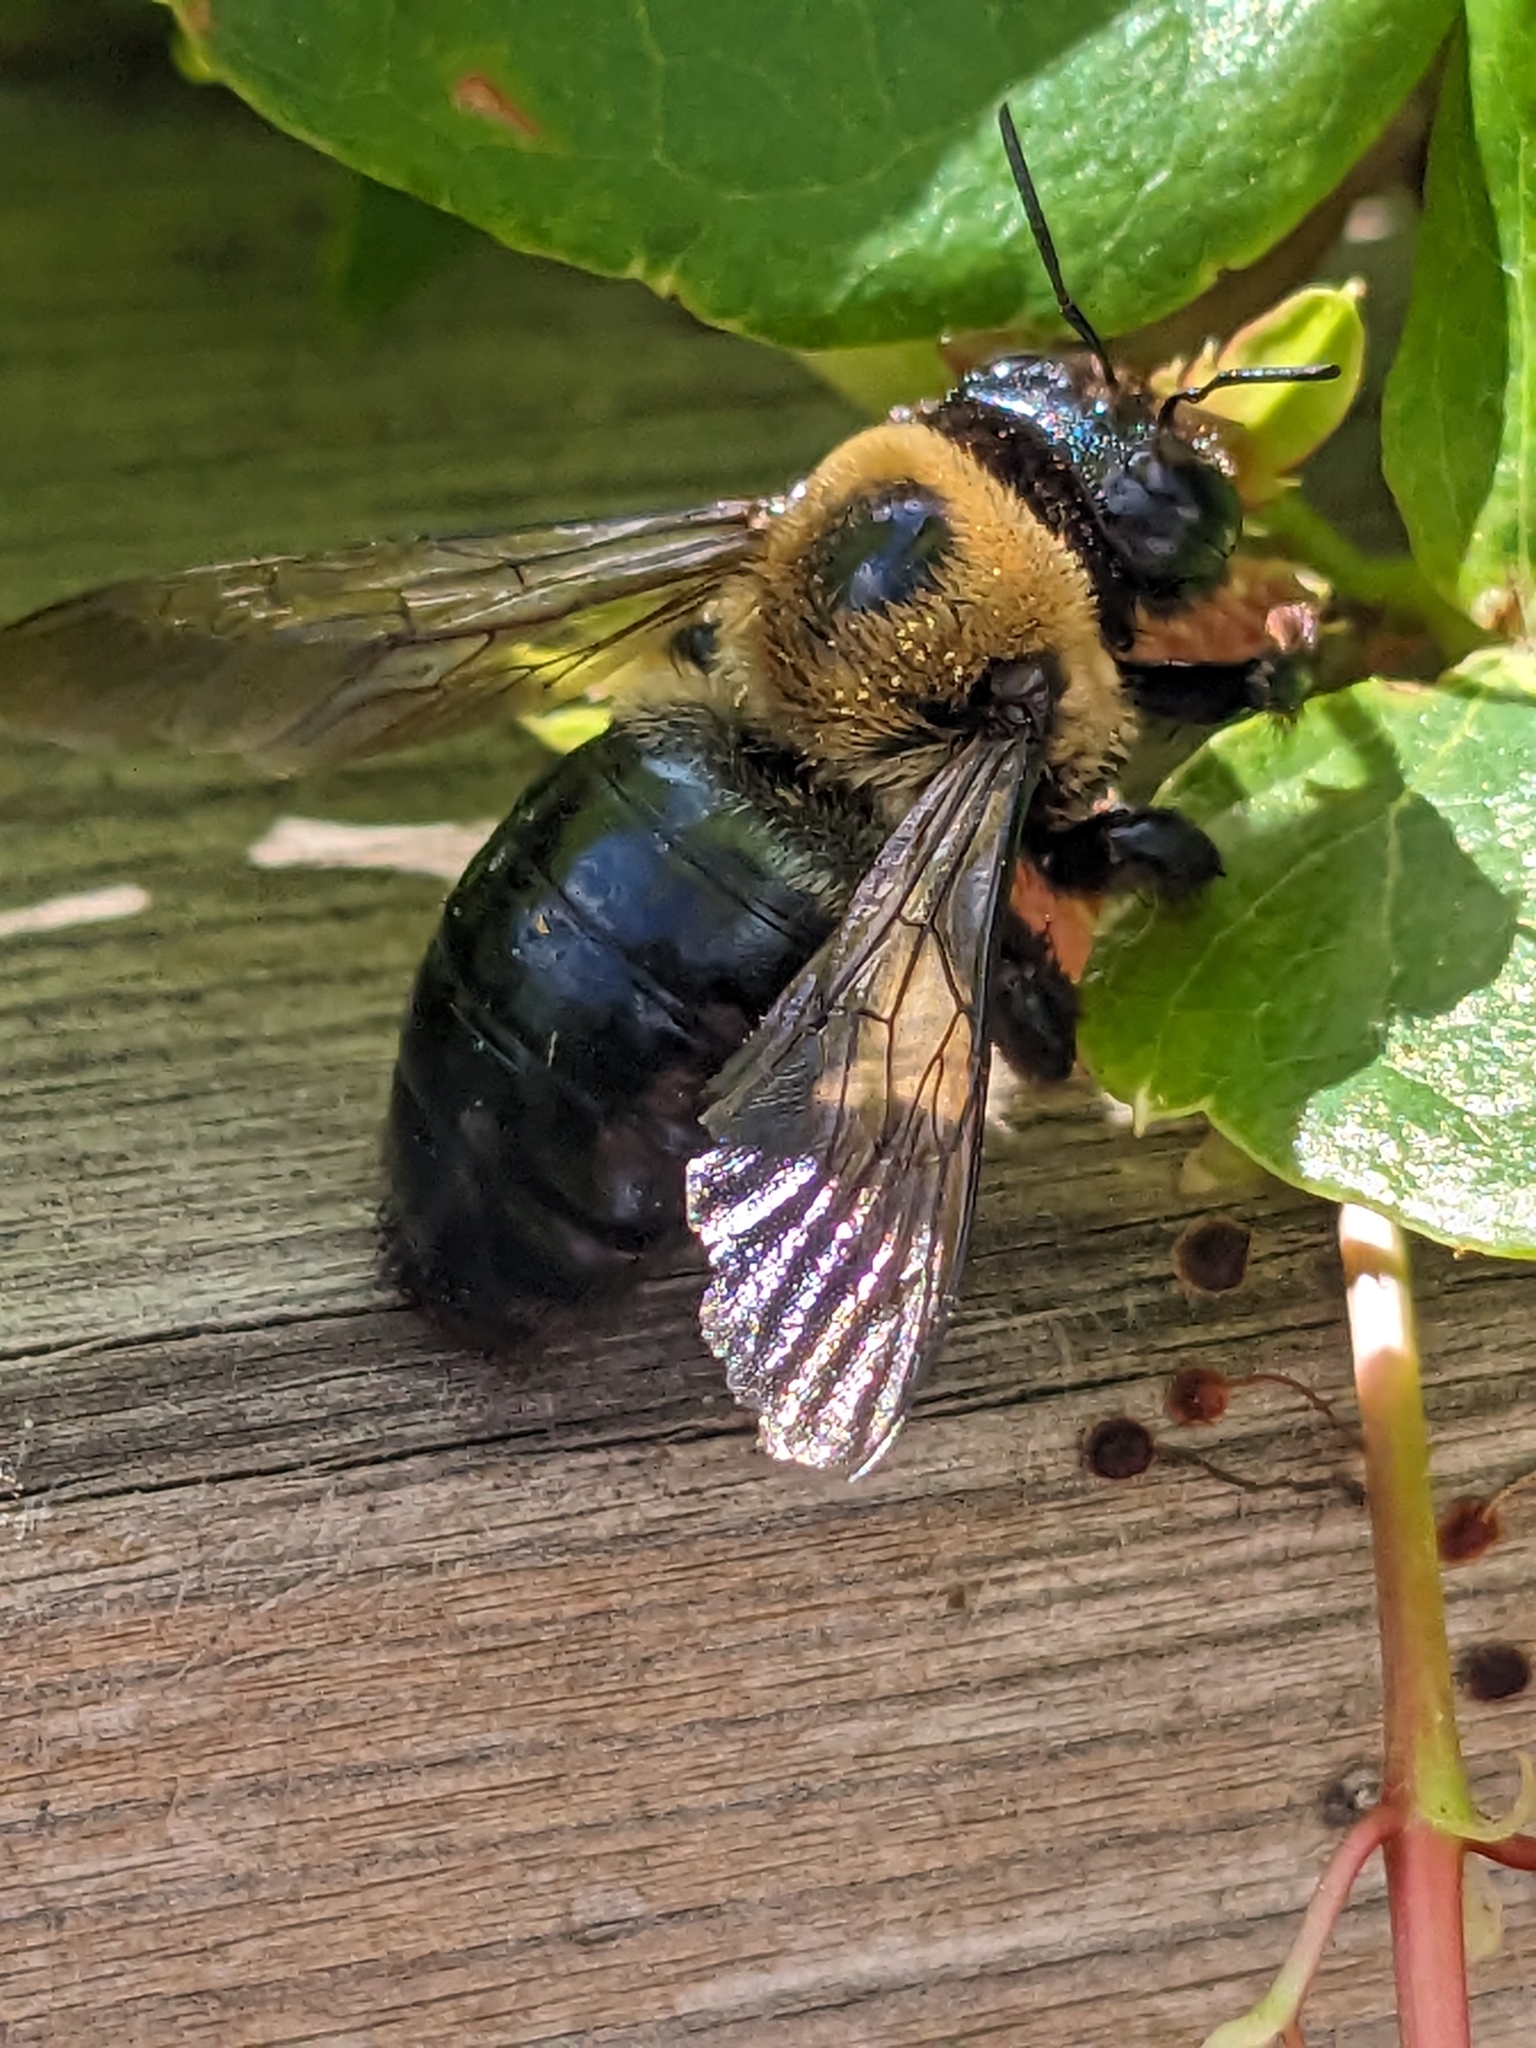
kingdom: Animalia
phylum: Arthropoda
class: Insecta
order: Hymenoptera
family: Apidae
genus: Xylocopa
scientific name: Xylocopa virginica
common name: Carpenter bee
